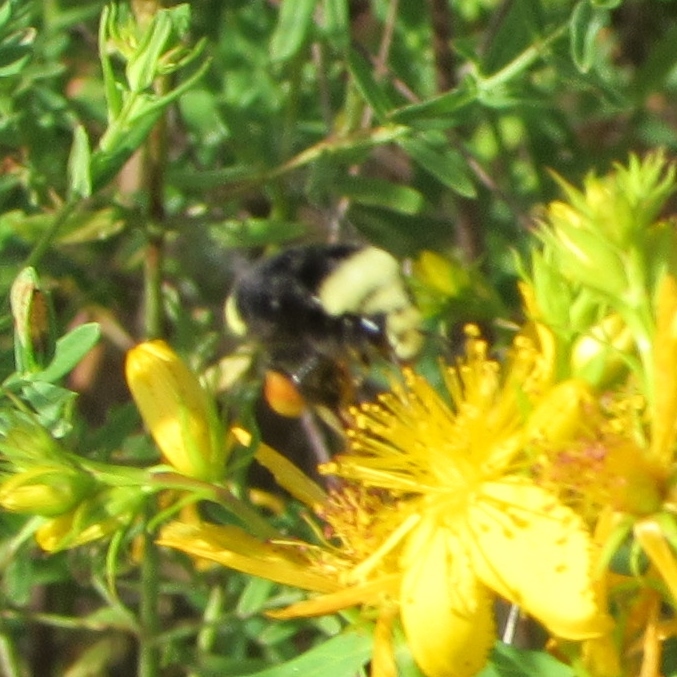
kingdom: Animalia
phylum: Arthropoda
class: Insecta
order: Hymenoptera
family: Apidae
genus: Bombus
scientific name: Bombus vosnesenskii
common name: Vosnesensky bumble bee
